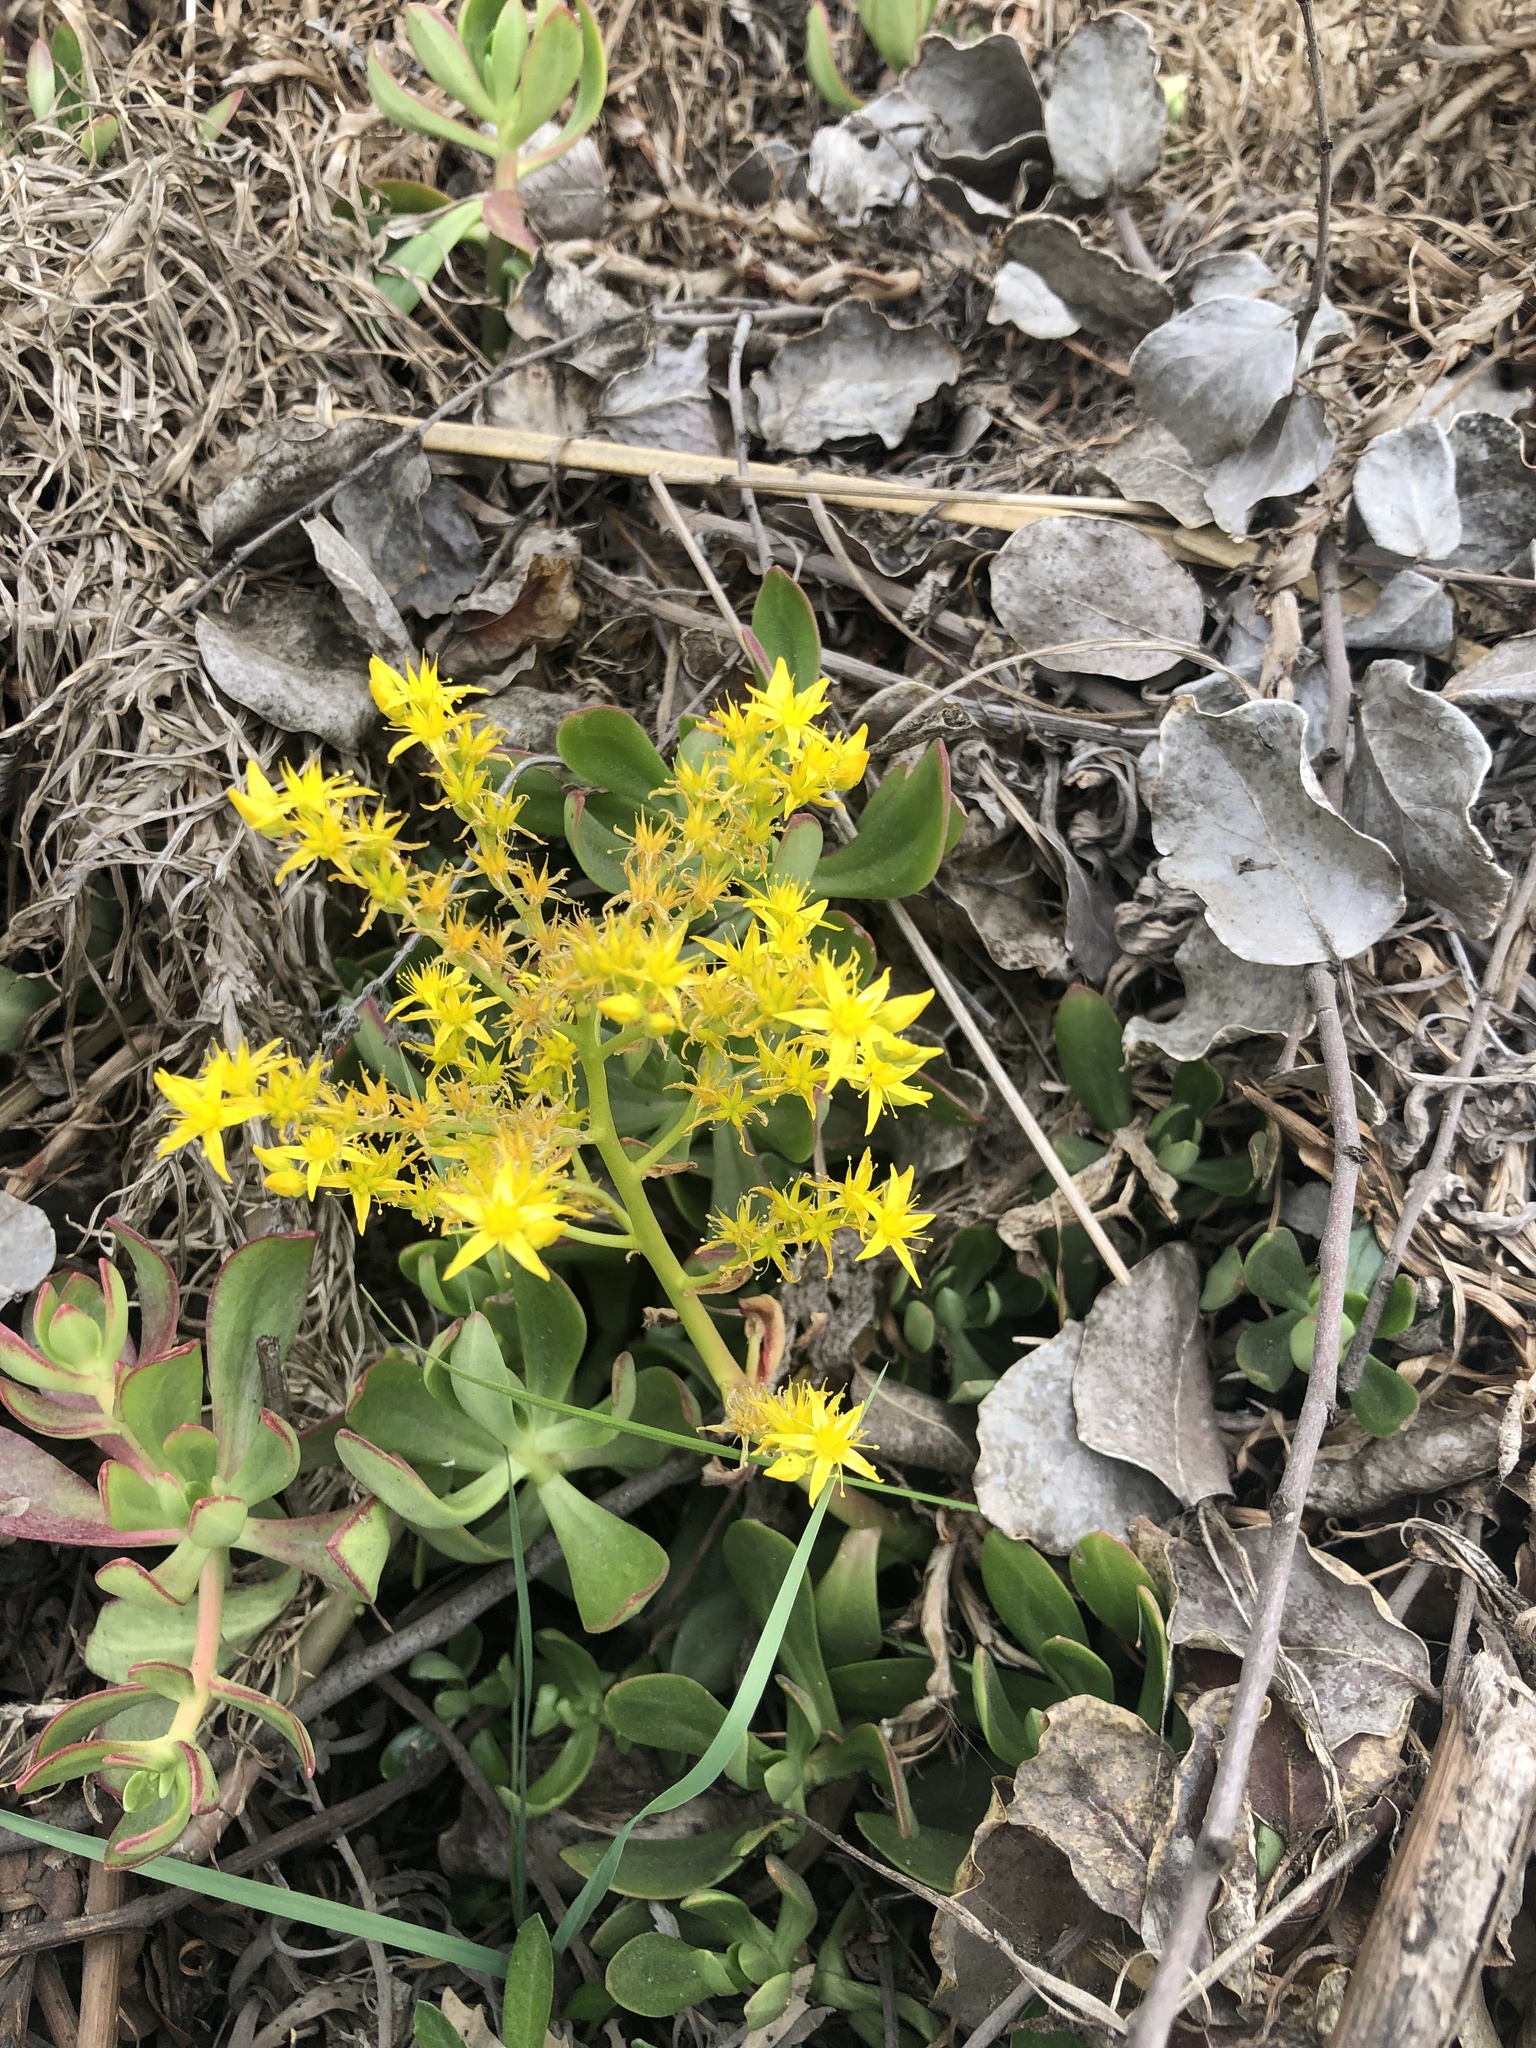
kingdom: Plantae
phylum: Tracheophyta
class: Magnoliopsida
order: Saxifragales
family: Crassulaceae
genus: Sedum
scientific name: Sedum praealtum
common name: Greater mexican-stonecrop
